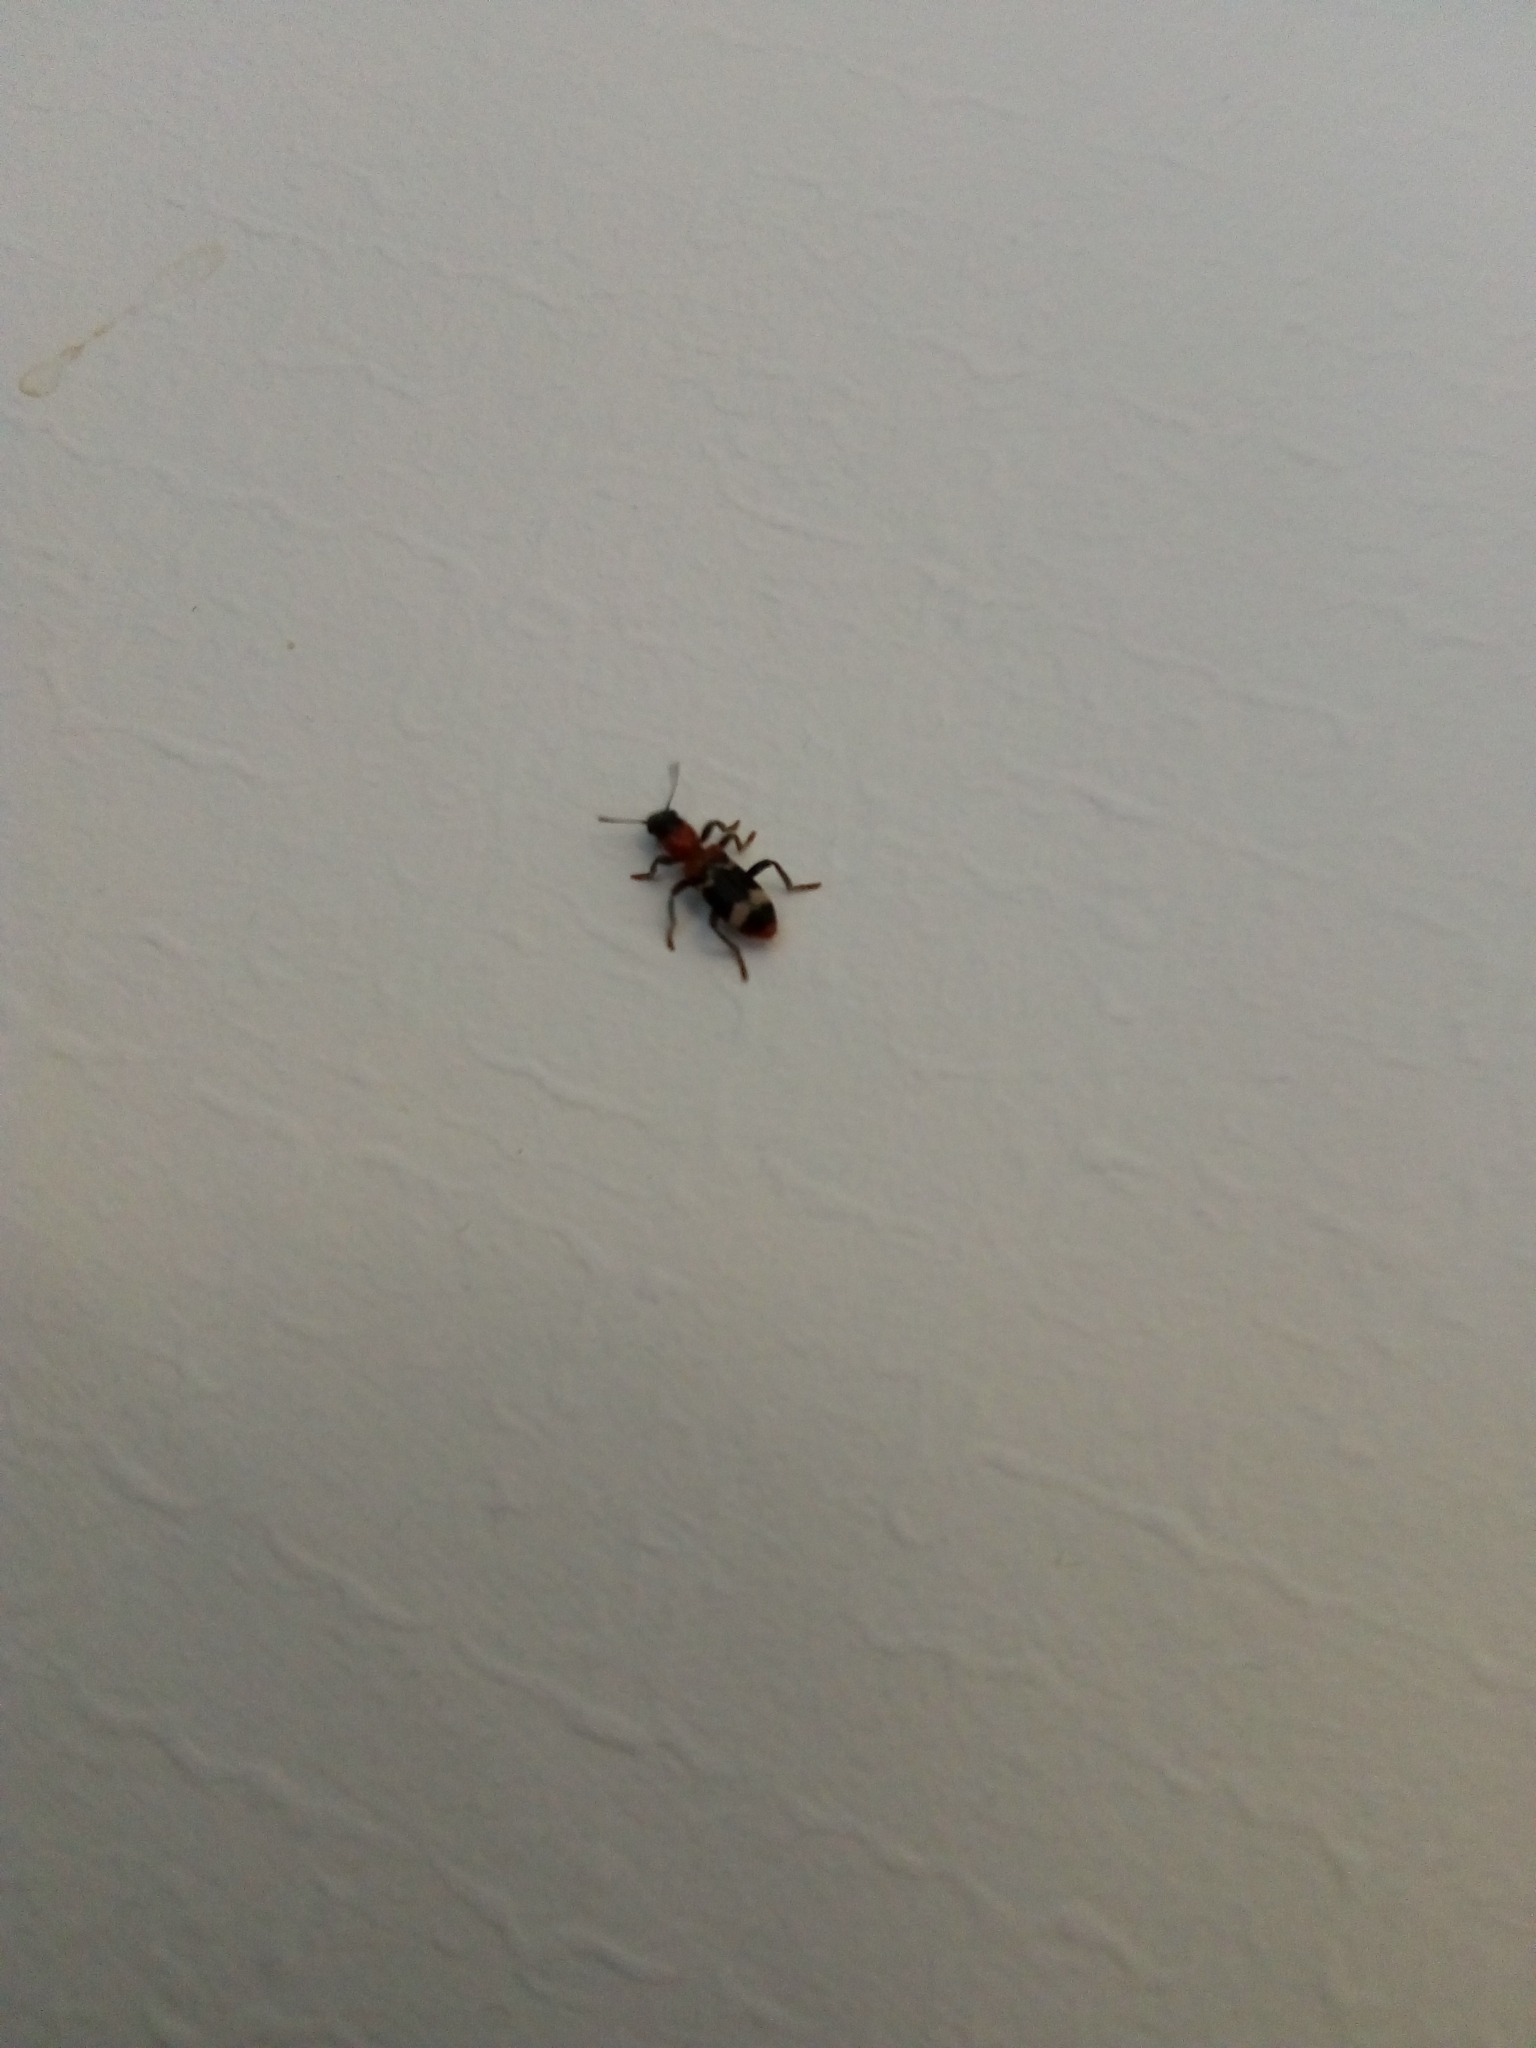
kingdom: Animalia
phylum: Arthropoda
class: Insecta
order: Coleoptera
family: Cleridae
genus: Thanasimus
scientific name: Thanasimus formicarius
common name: Ant beetle
